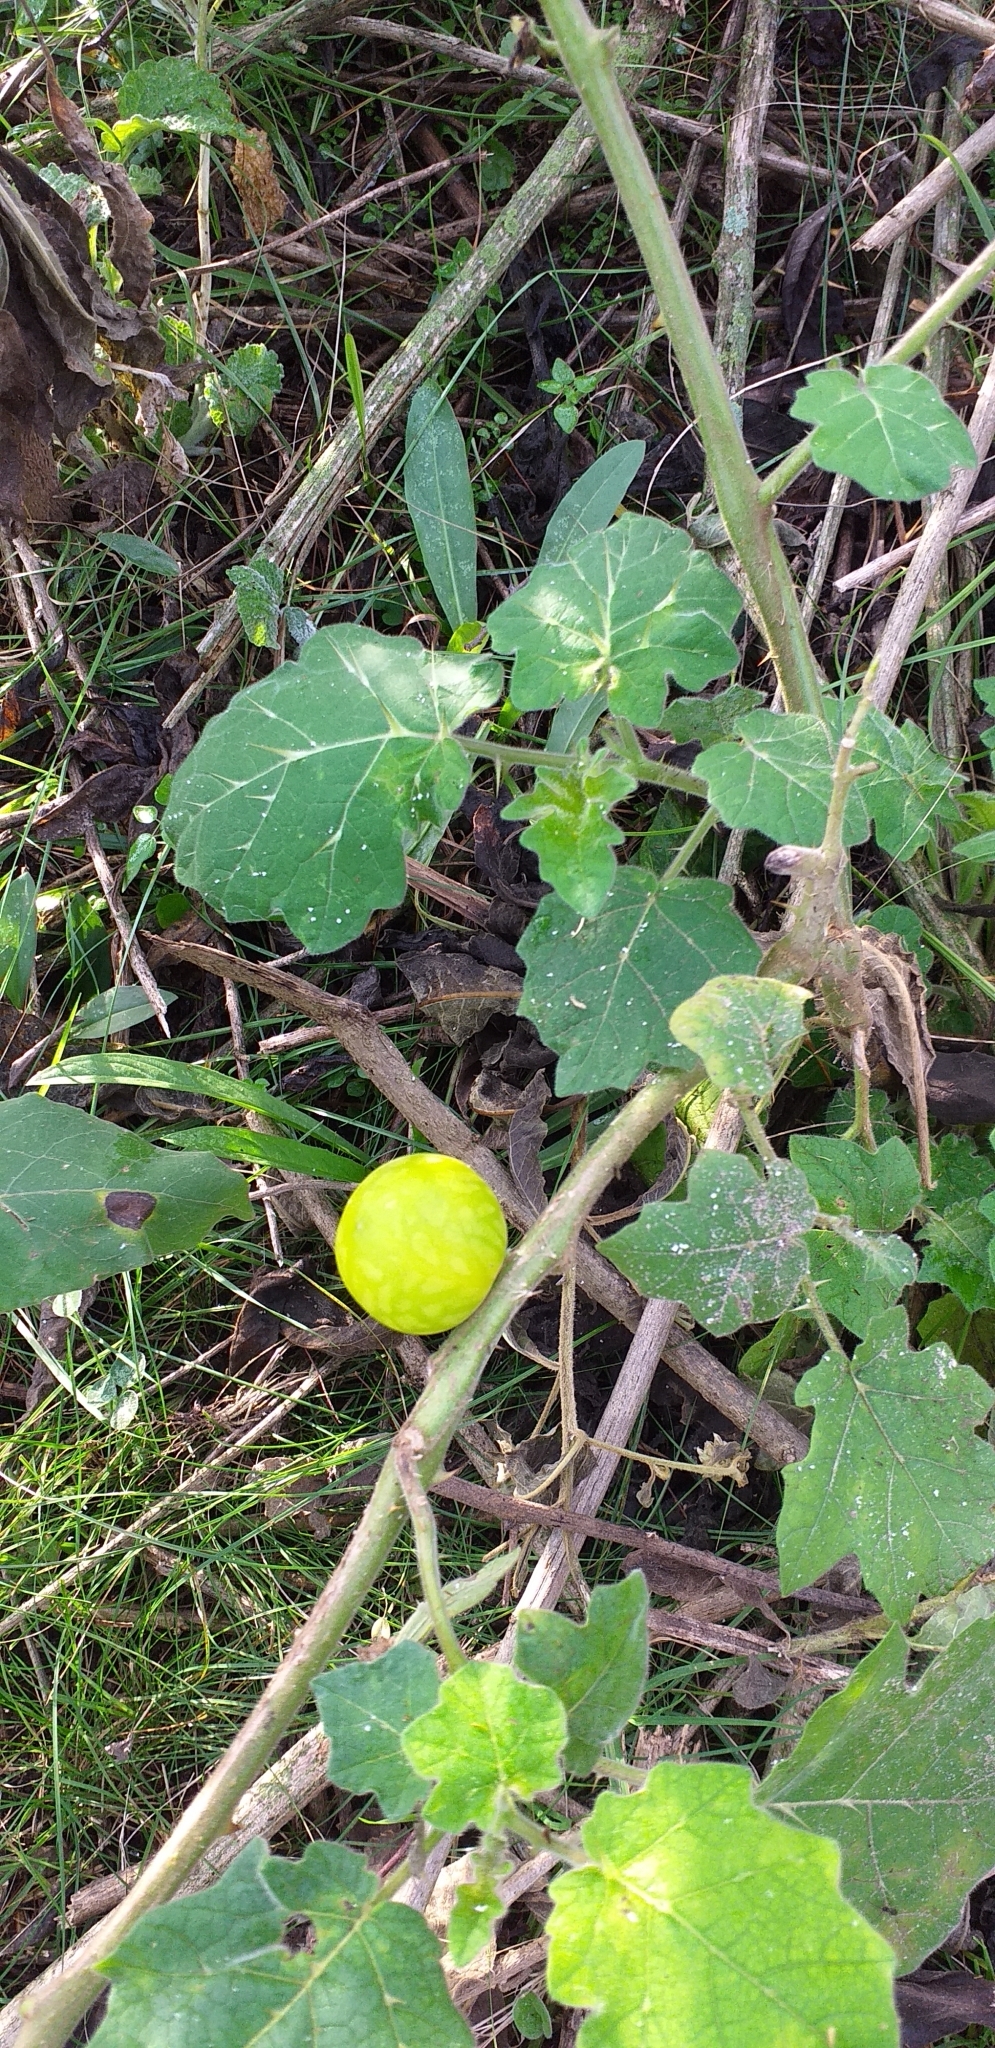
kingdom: Plantae
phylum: Tracheophyta
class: Magnoliopsida
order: Solanales
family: Solanaceae
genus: Solanum
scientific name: Solanum viarum
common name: Tropical soda apple
